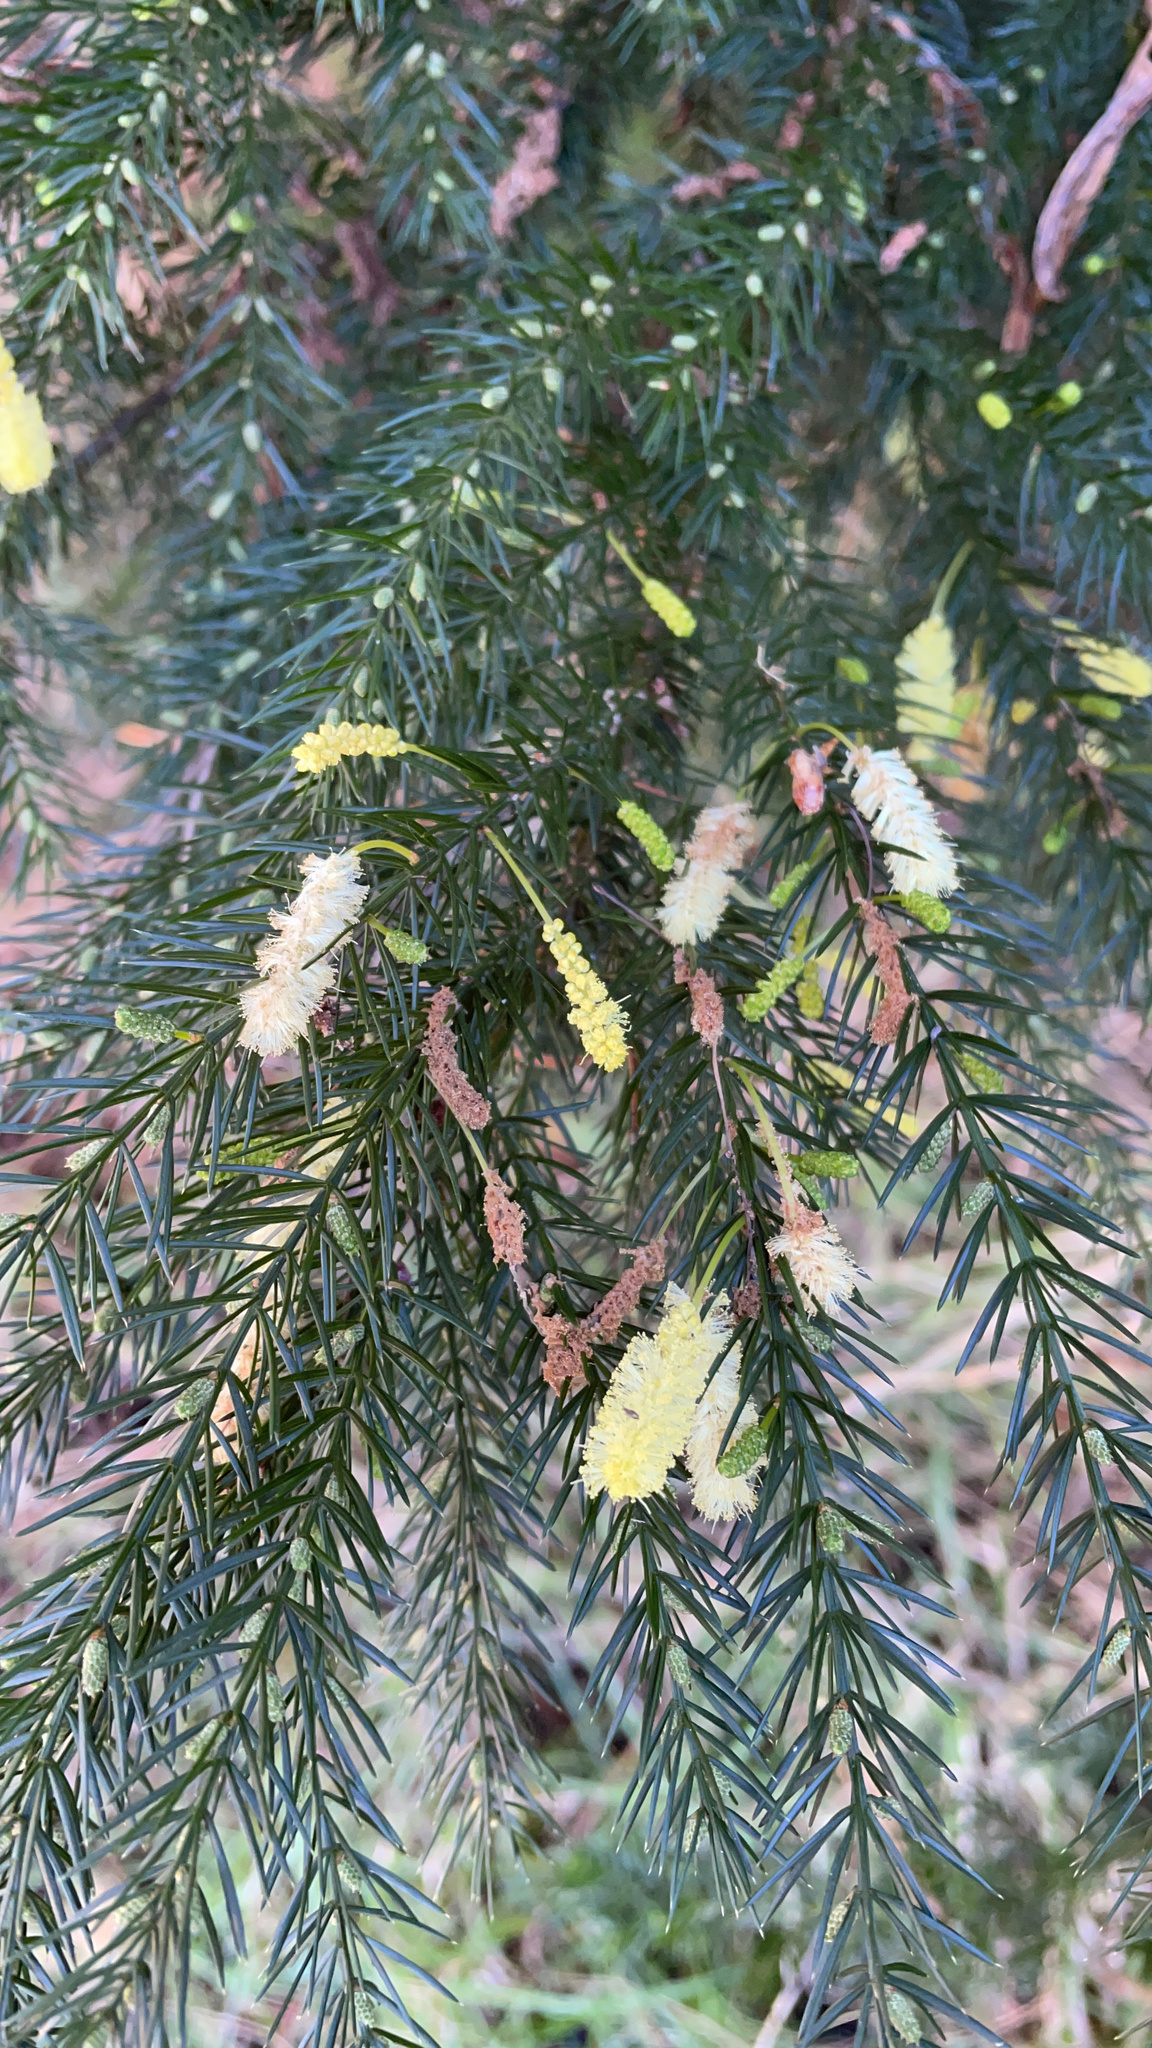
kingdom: Plantae
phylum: Tracheophyta
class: Magnoliopsida
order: Fabales
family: Fabaceae
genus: Acacia
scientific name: Acacia verticillata
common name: Prickly moses
